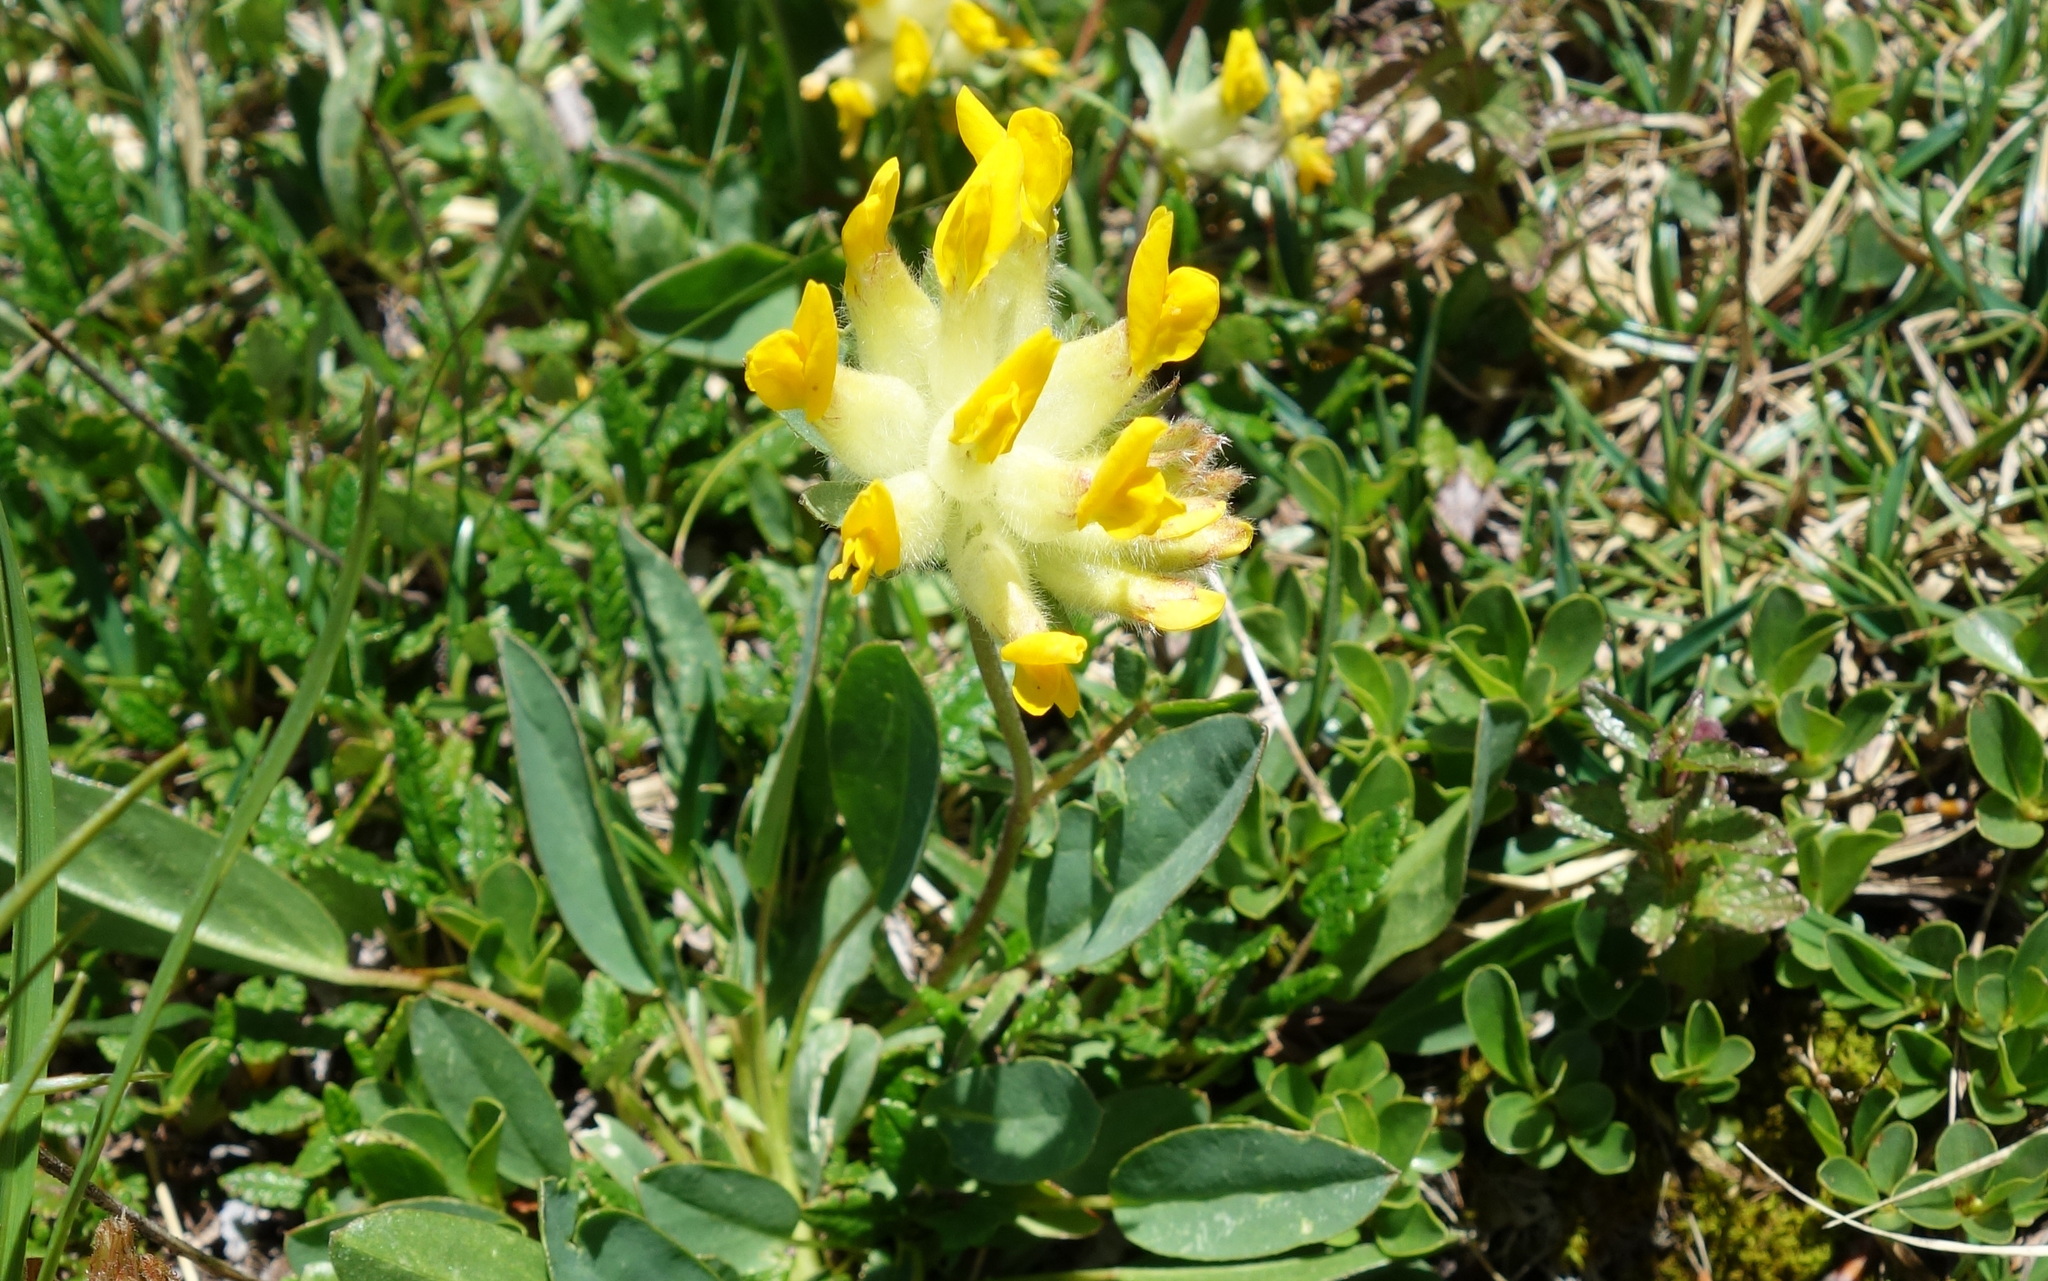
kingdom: Plantae
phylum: Tracheophyta
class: Magnoliopsida
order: Fabales
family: Fabaceae
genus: Anthyllis
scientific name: Anthyllis vulneraria
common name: Kidney vetch
